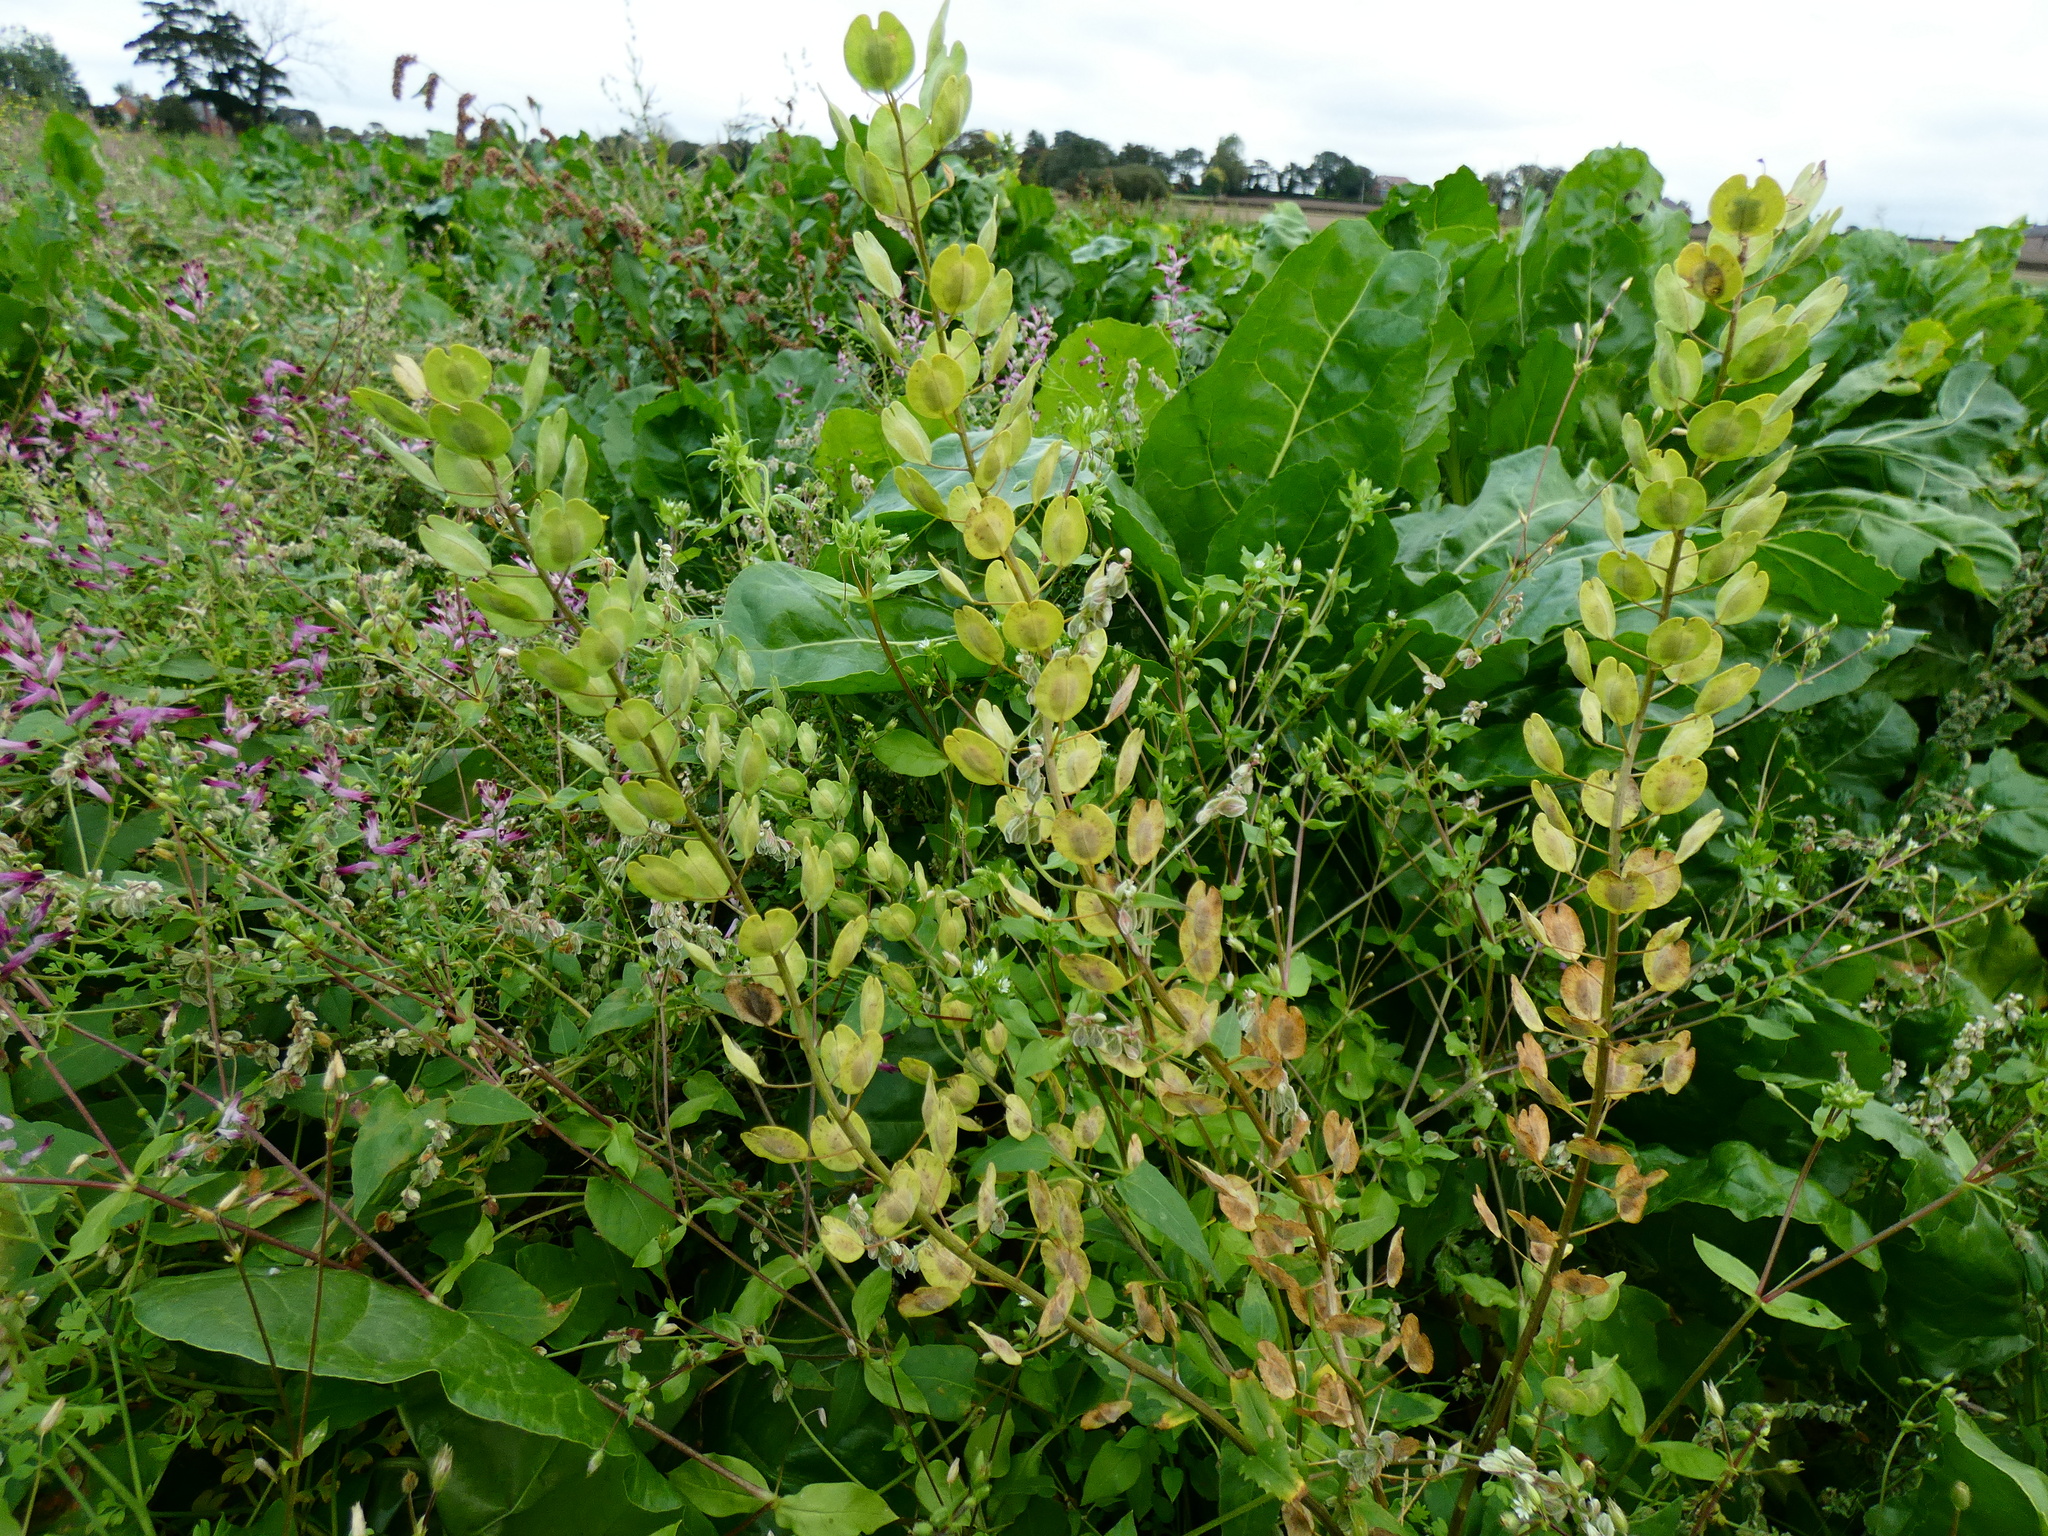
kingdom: Plantae
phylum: Tracheophyta
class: Magnoliopsida
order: Brassicales
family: Brassicaceae
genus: Thlaspi
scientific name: Thlaspi arvense
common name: Field pennycress
